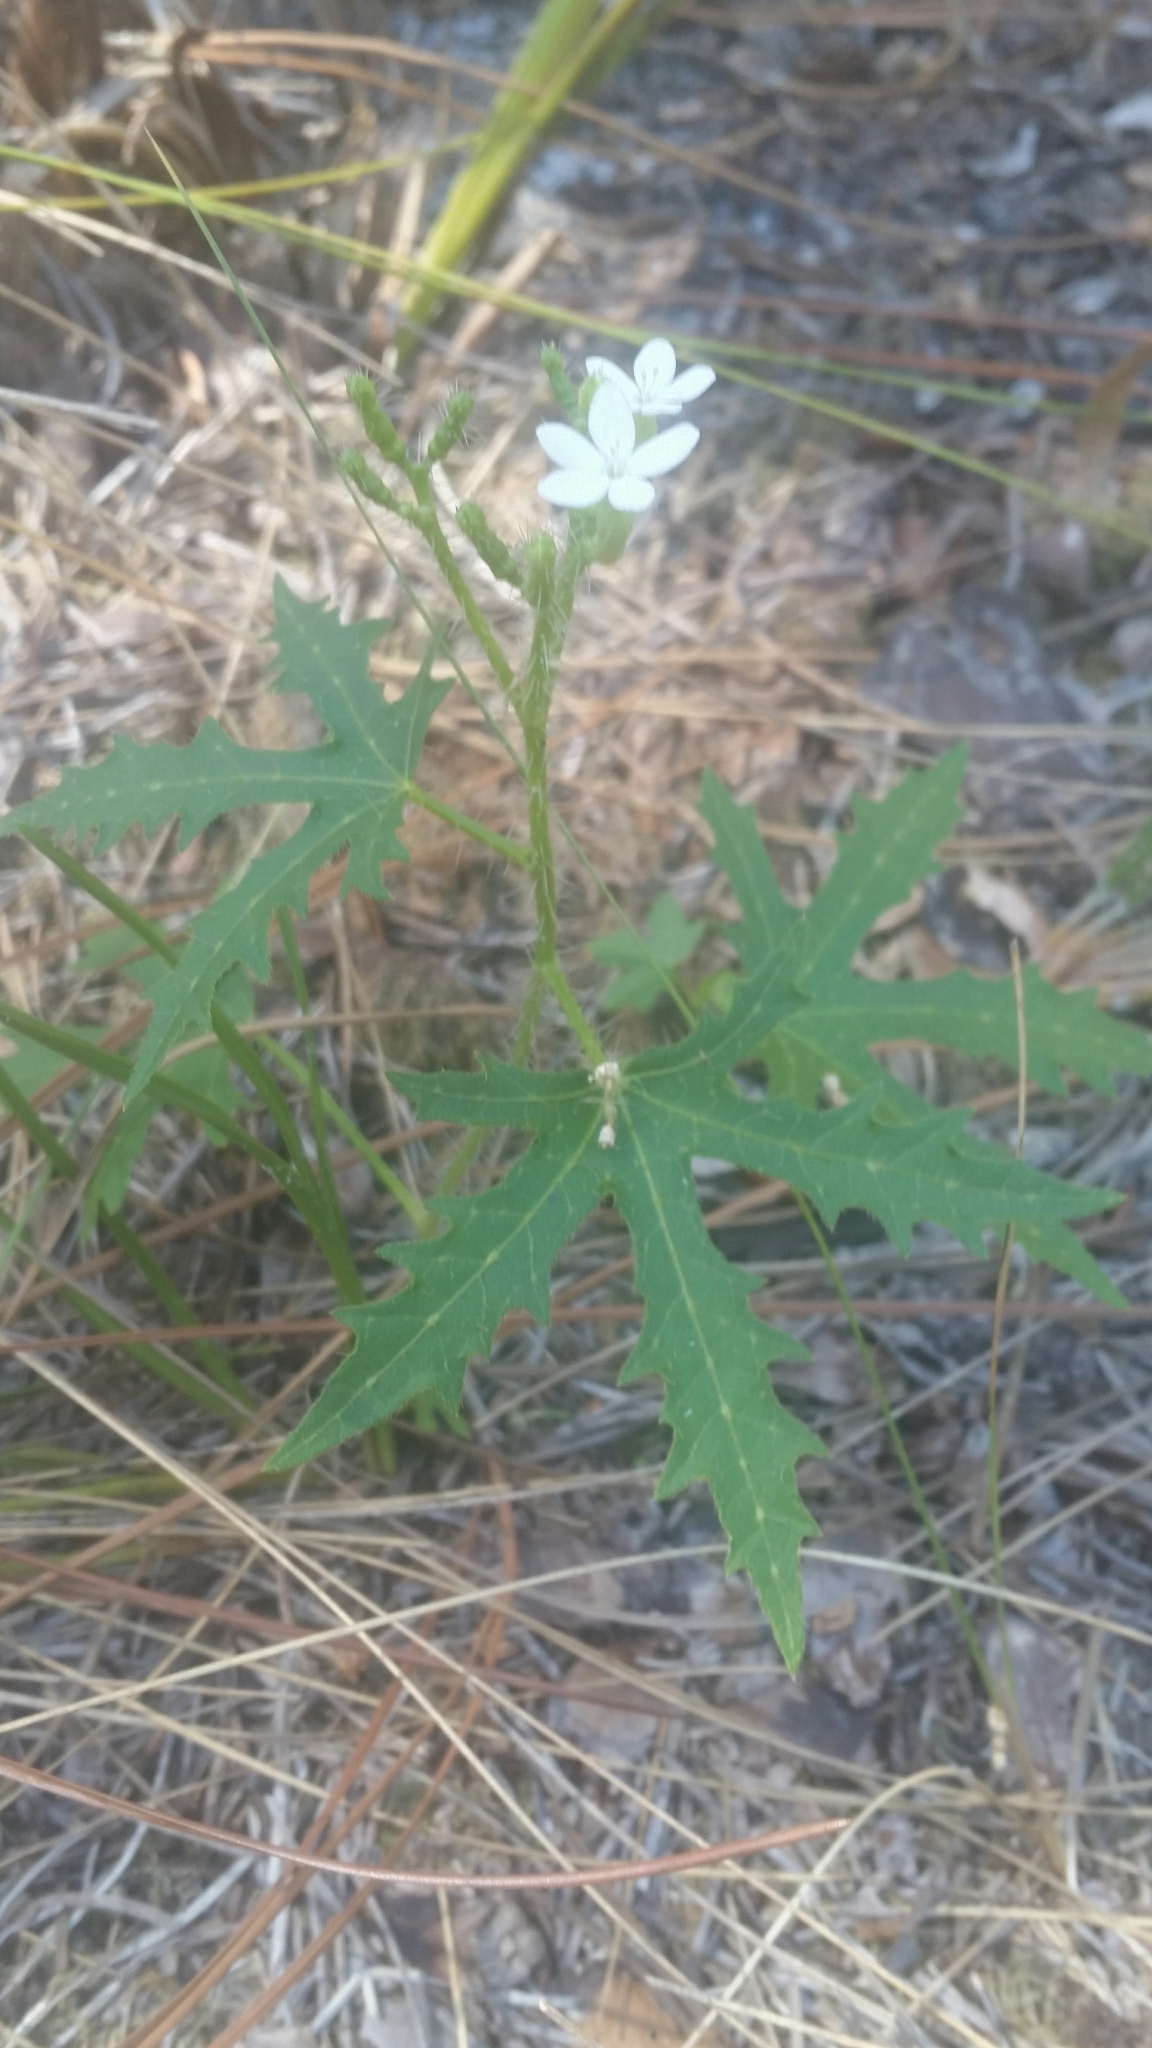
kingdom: Plantae
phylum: Tracheophyta
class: Magnoliopsida
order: Malpighiales
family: Euphorbiaceae
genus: Cnidoscolus
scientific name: Cnidoscolus stimulosus
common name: Bull-nettle
